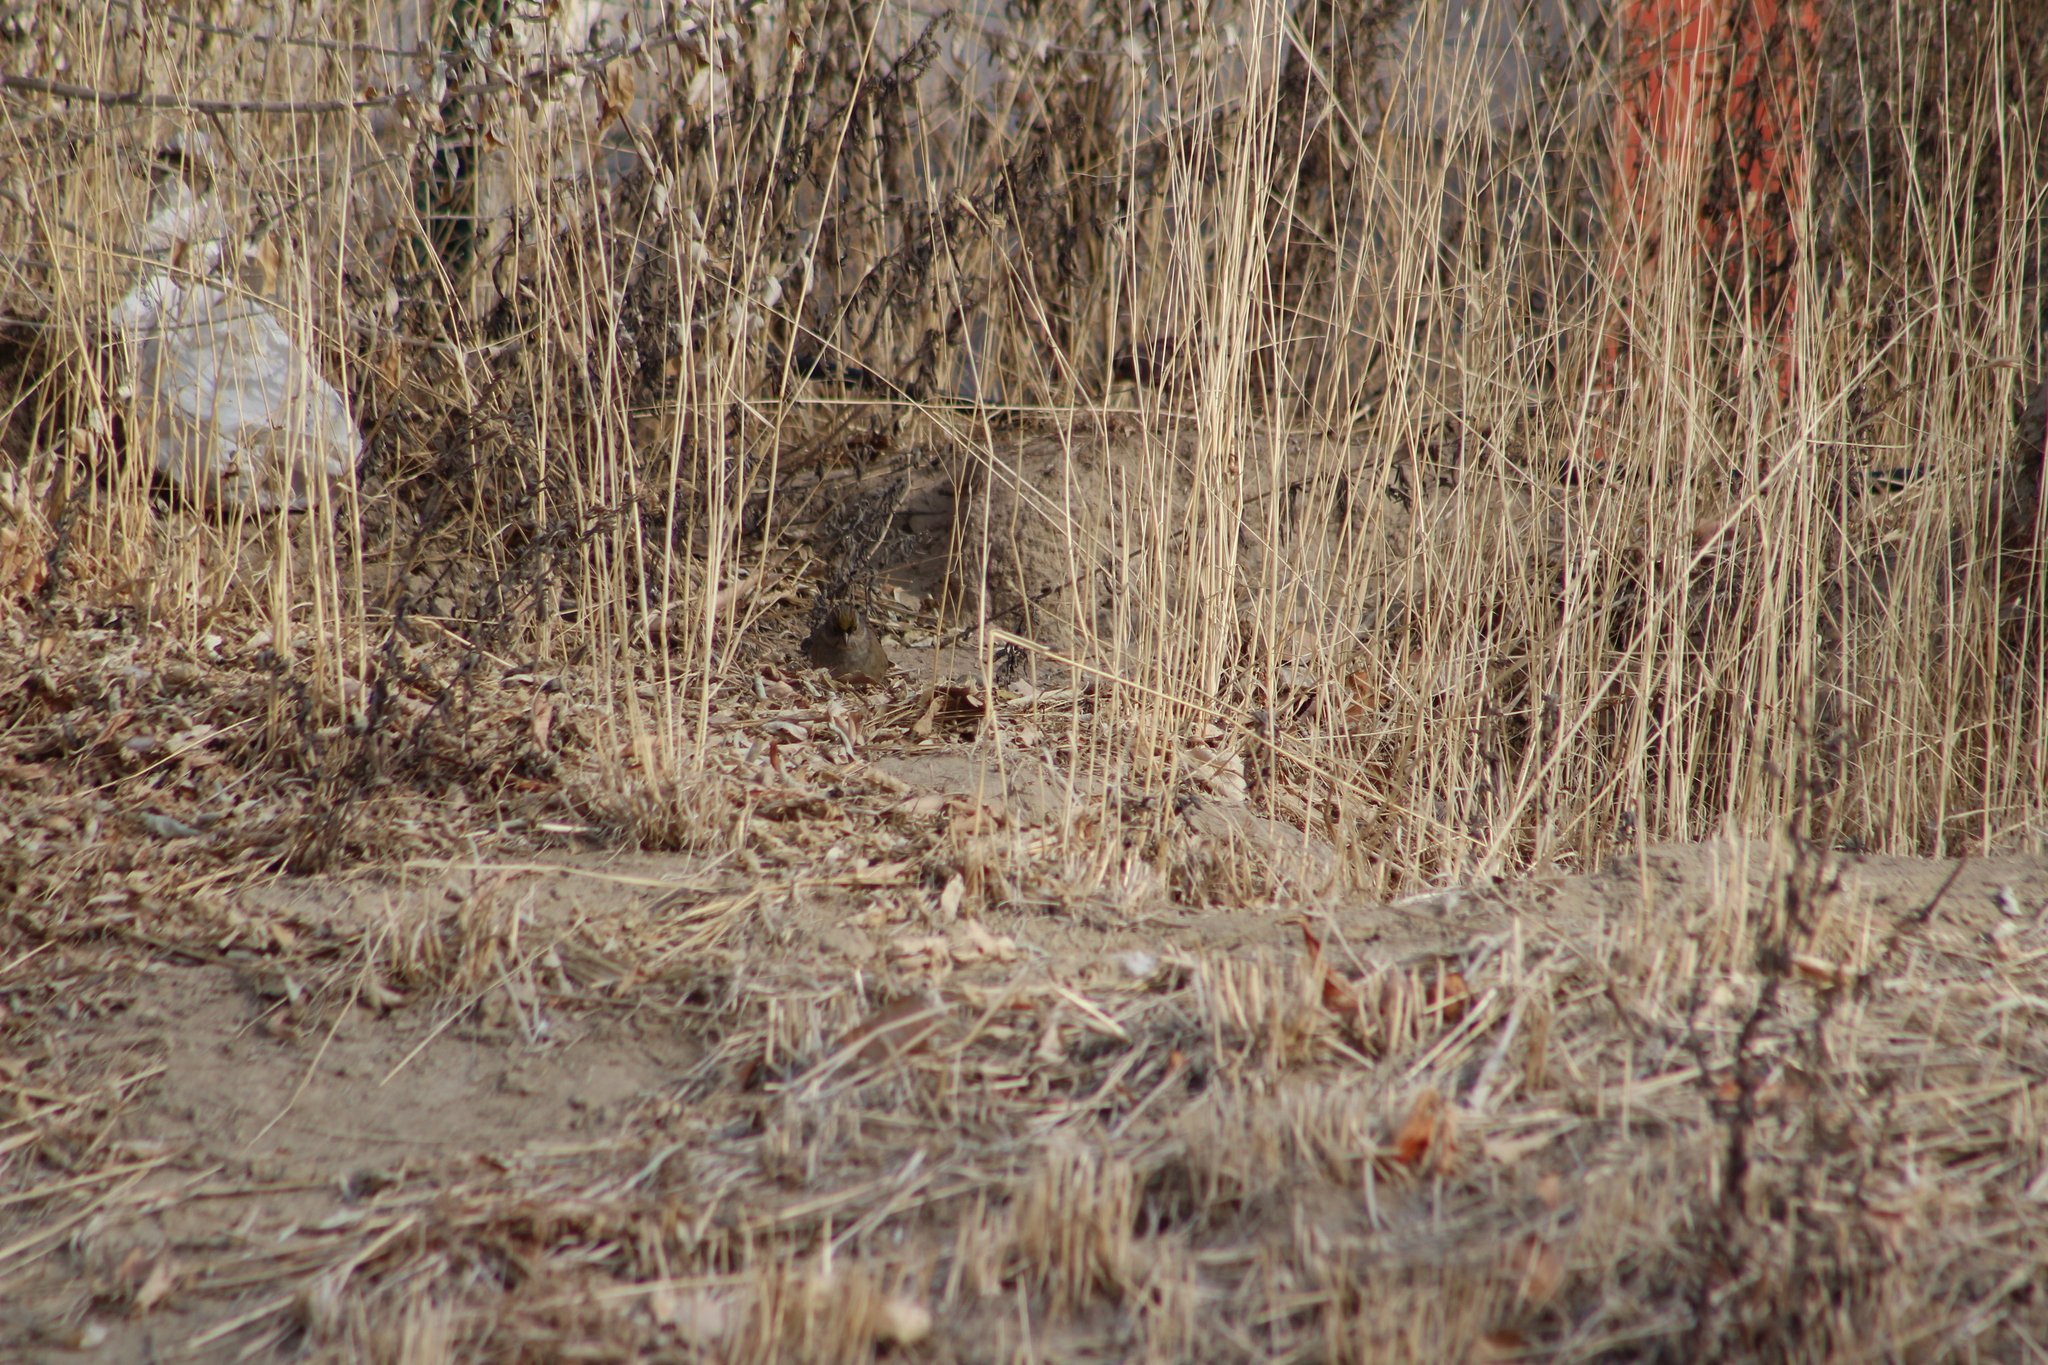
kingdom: Animalia
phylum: Chordata
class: Aves
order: Passeriformes
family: Passerellidae
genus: Zonotrichia
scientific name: Zonotrichia atricapilla
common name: Golden-crowned sparrow
